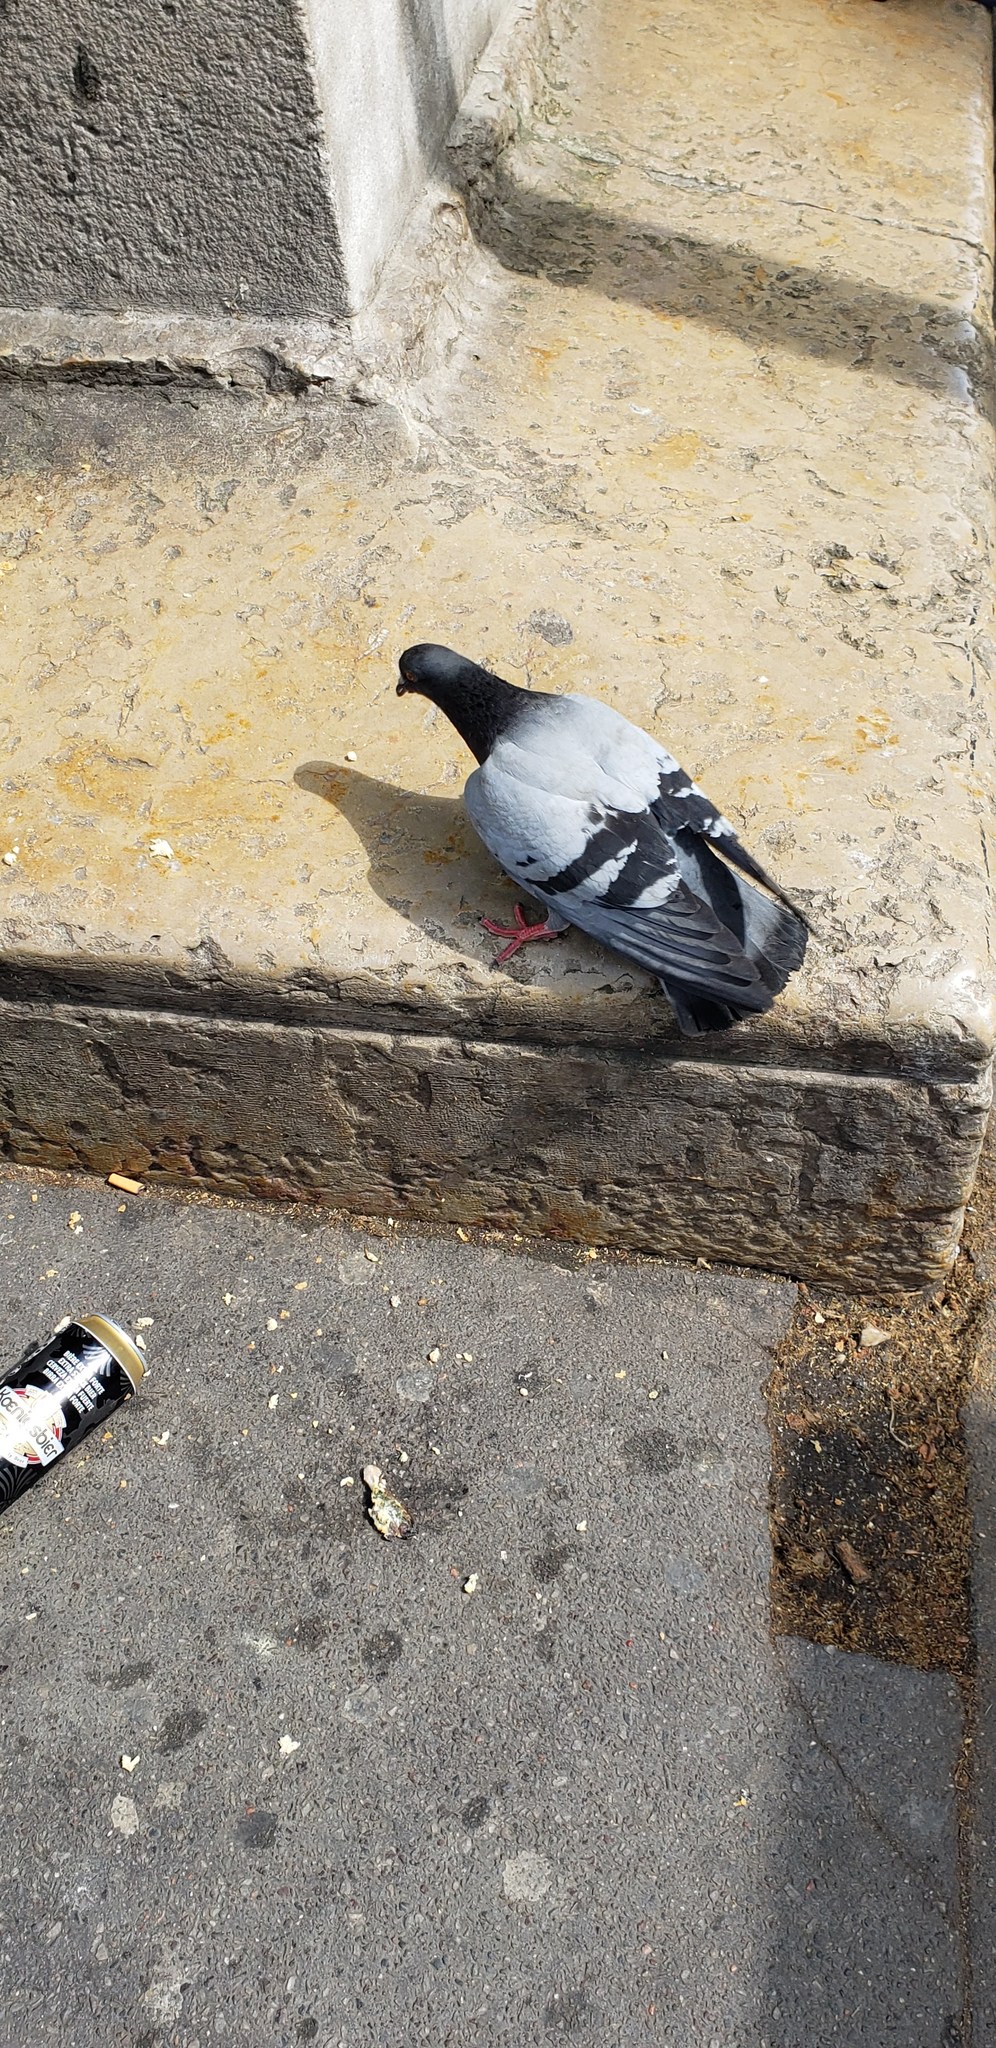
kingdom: Animalia
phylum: Chordata
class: Aves
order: Columbiformes
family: Columbidae
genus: Columba
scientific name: Columba livia
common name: Rock pigeon
